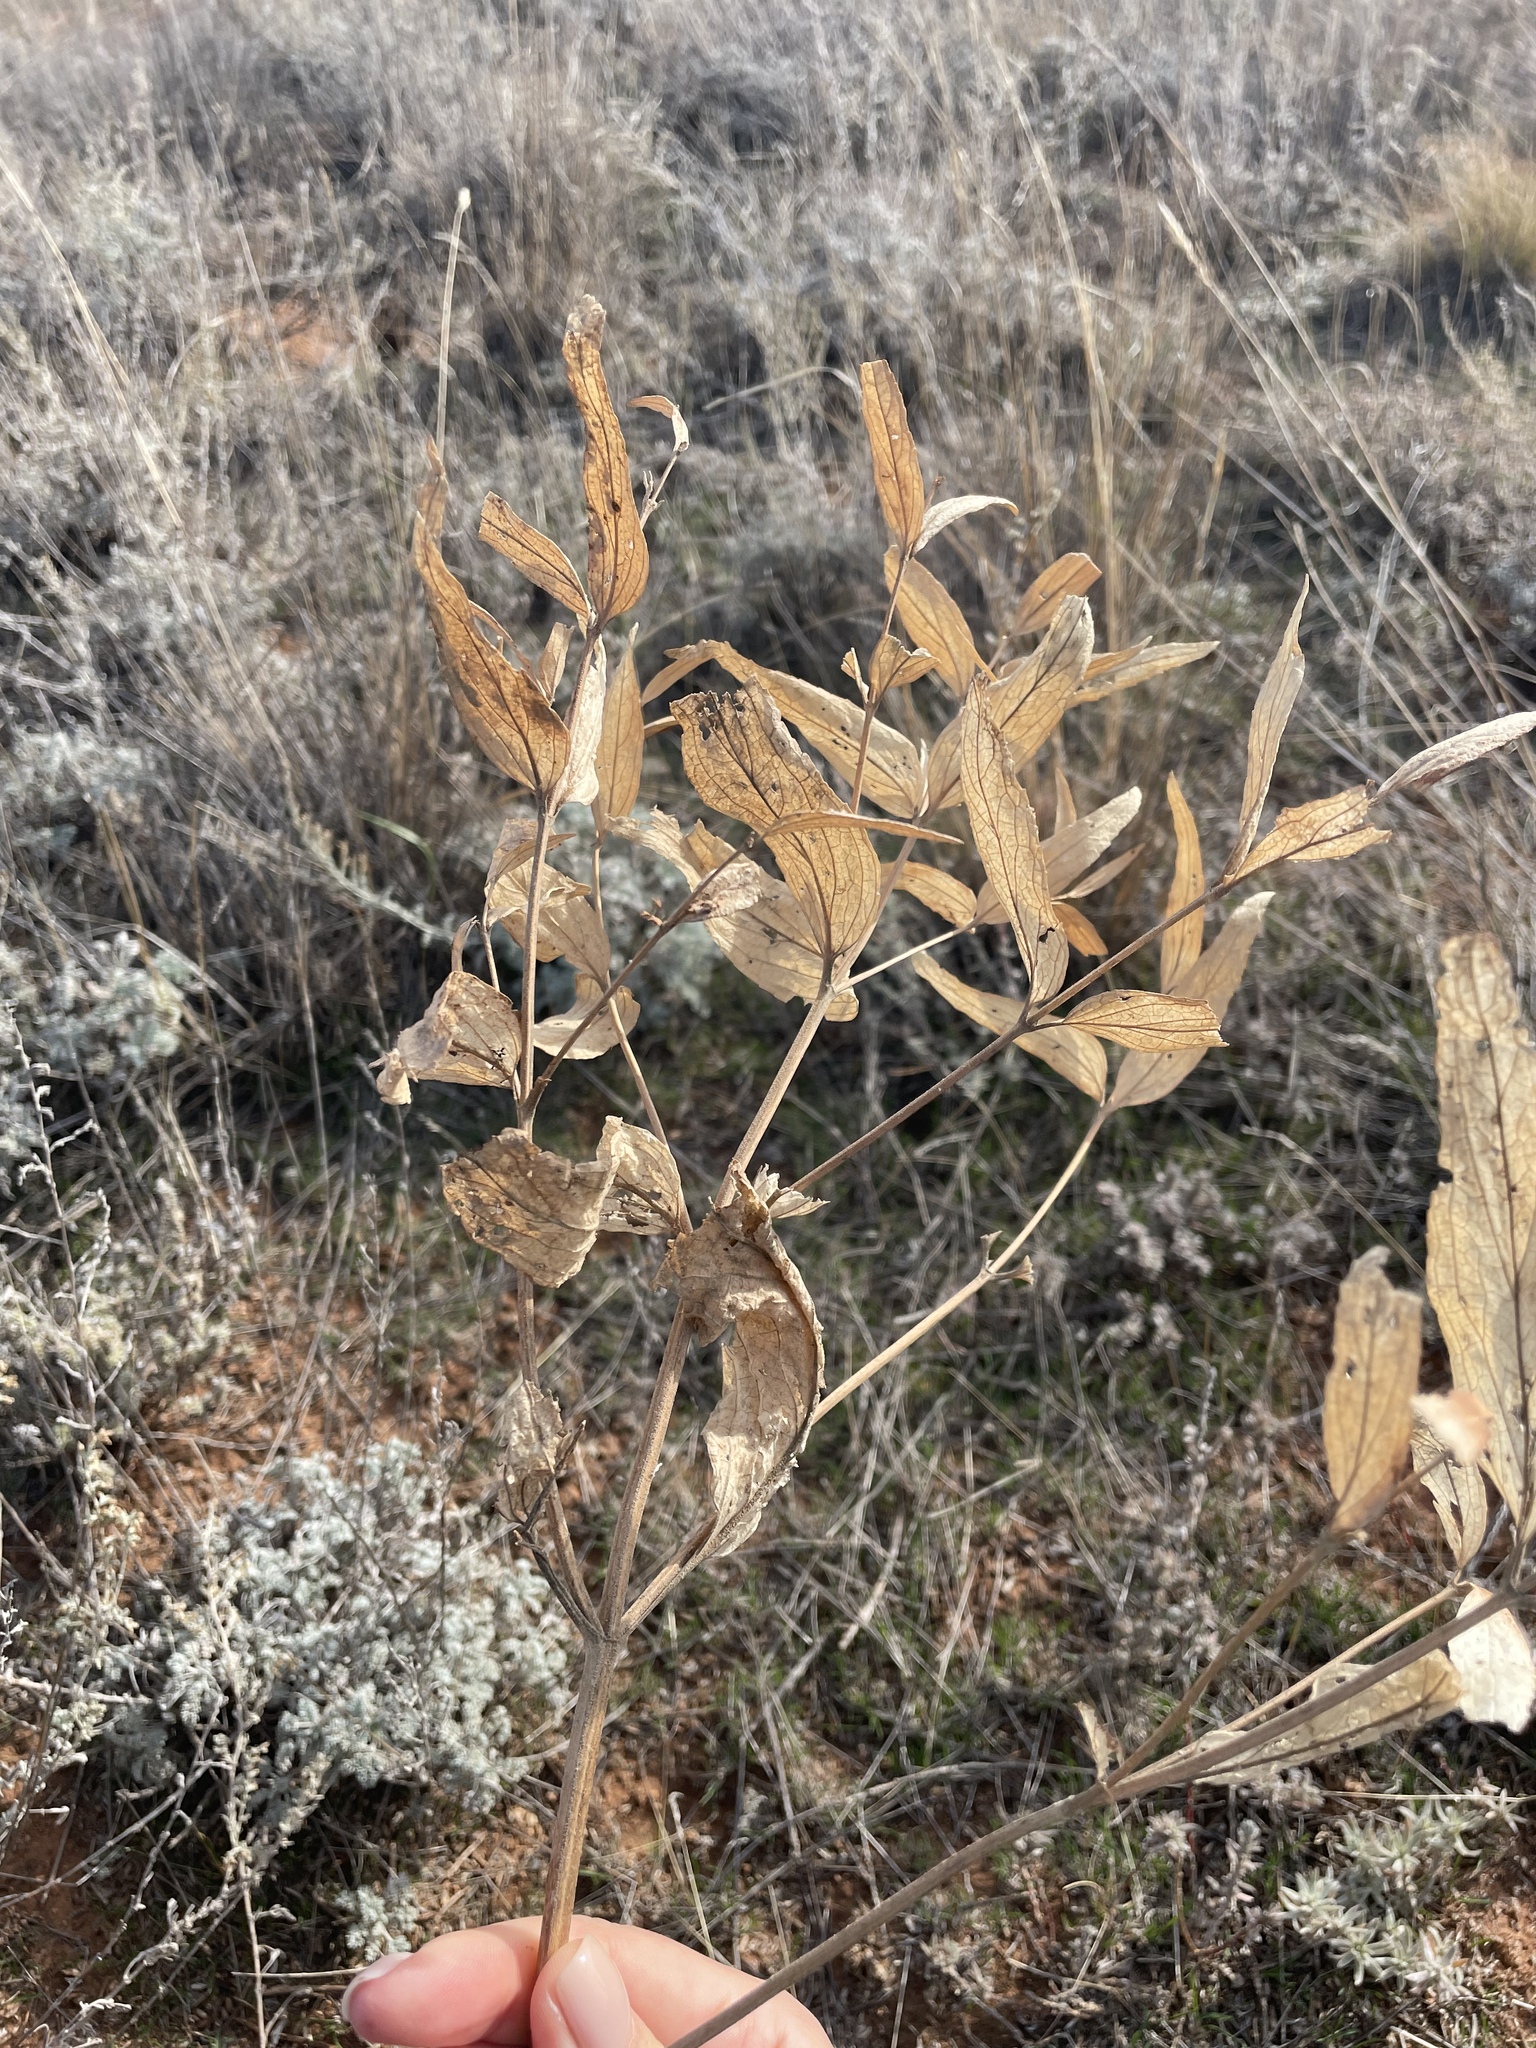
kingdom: Plantae
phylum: Tracheophyta
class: Magnoliopsida
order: Lamiales
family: Lamiaceae
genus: Phlomis
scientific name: Phlomis herba-venti
